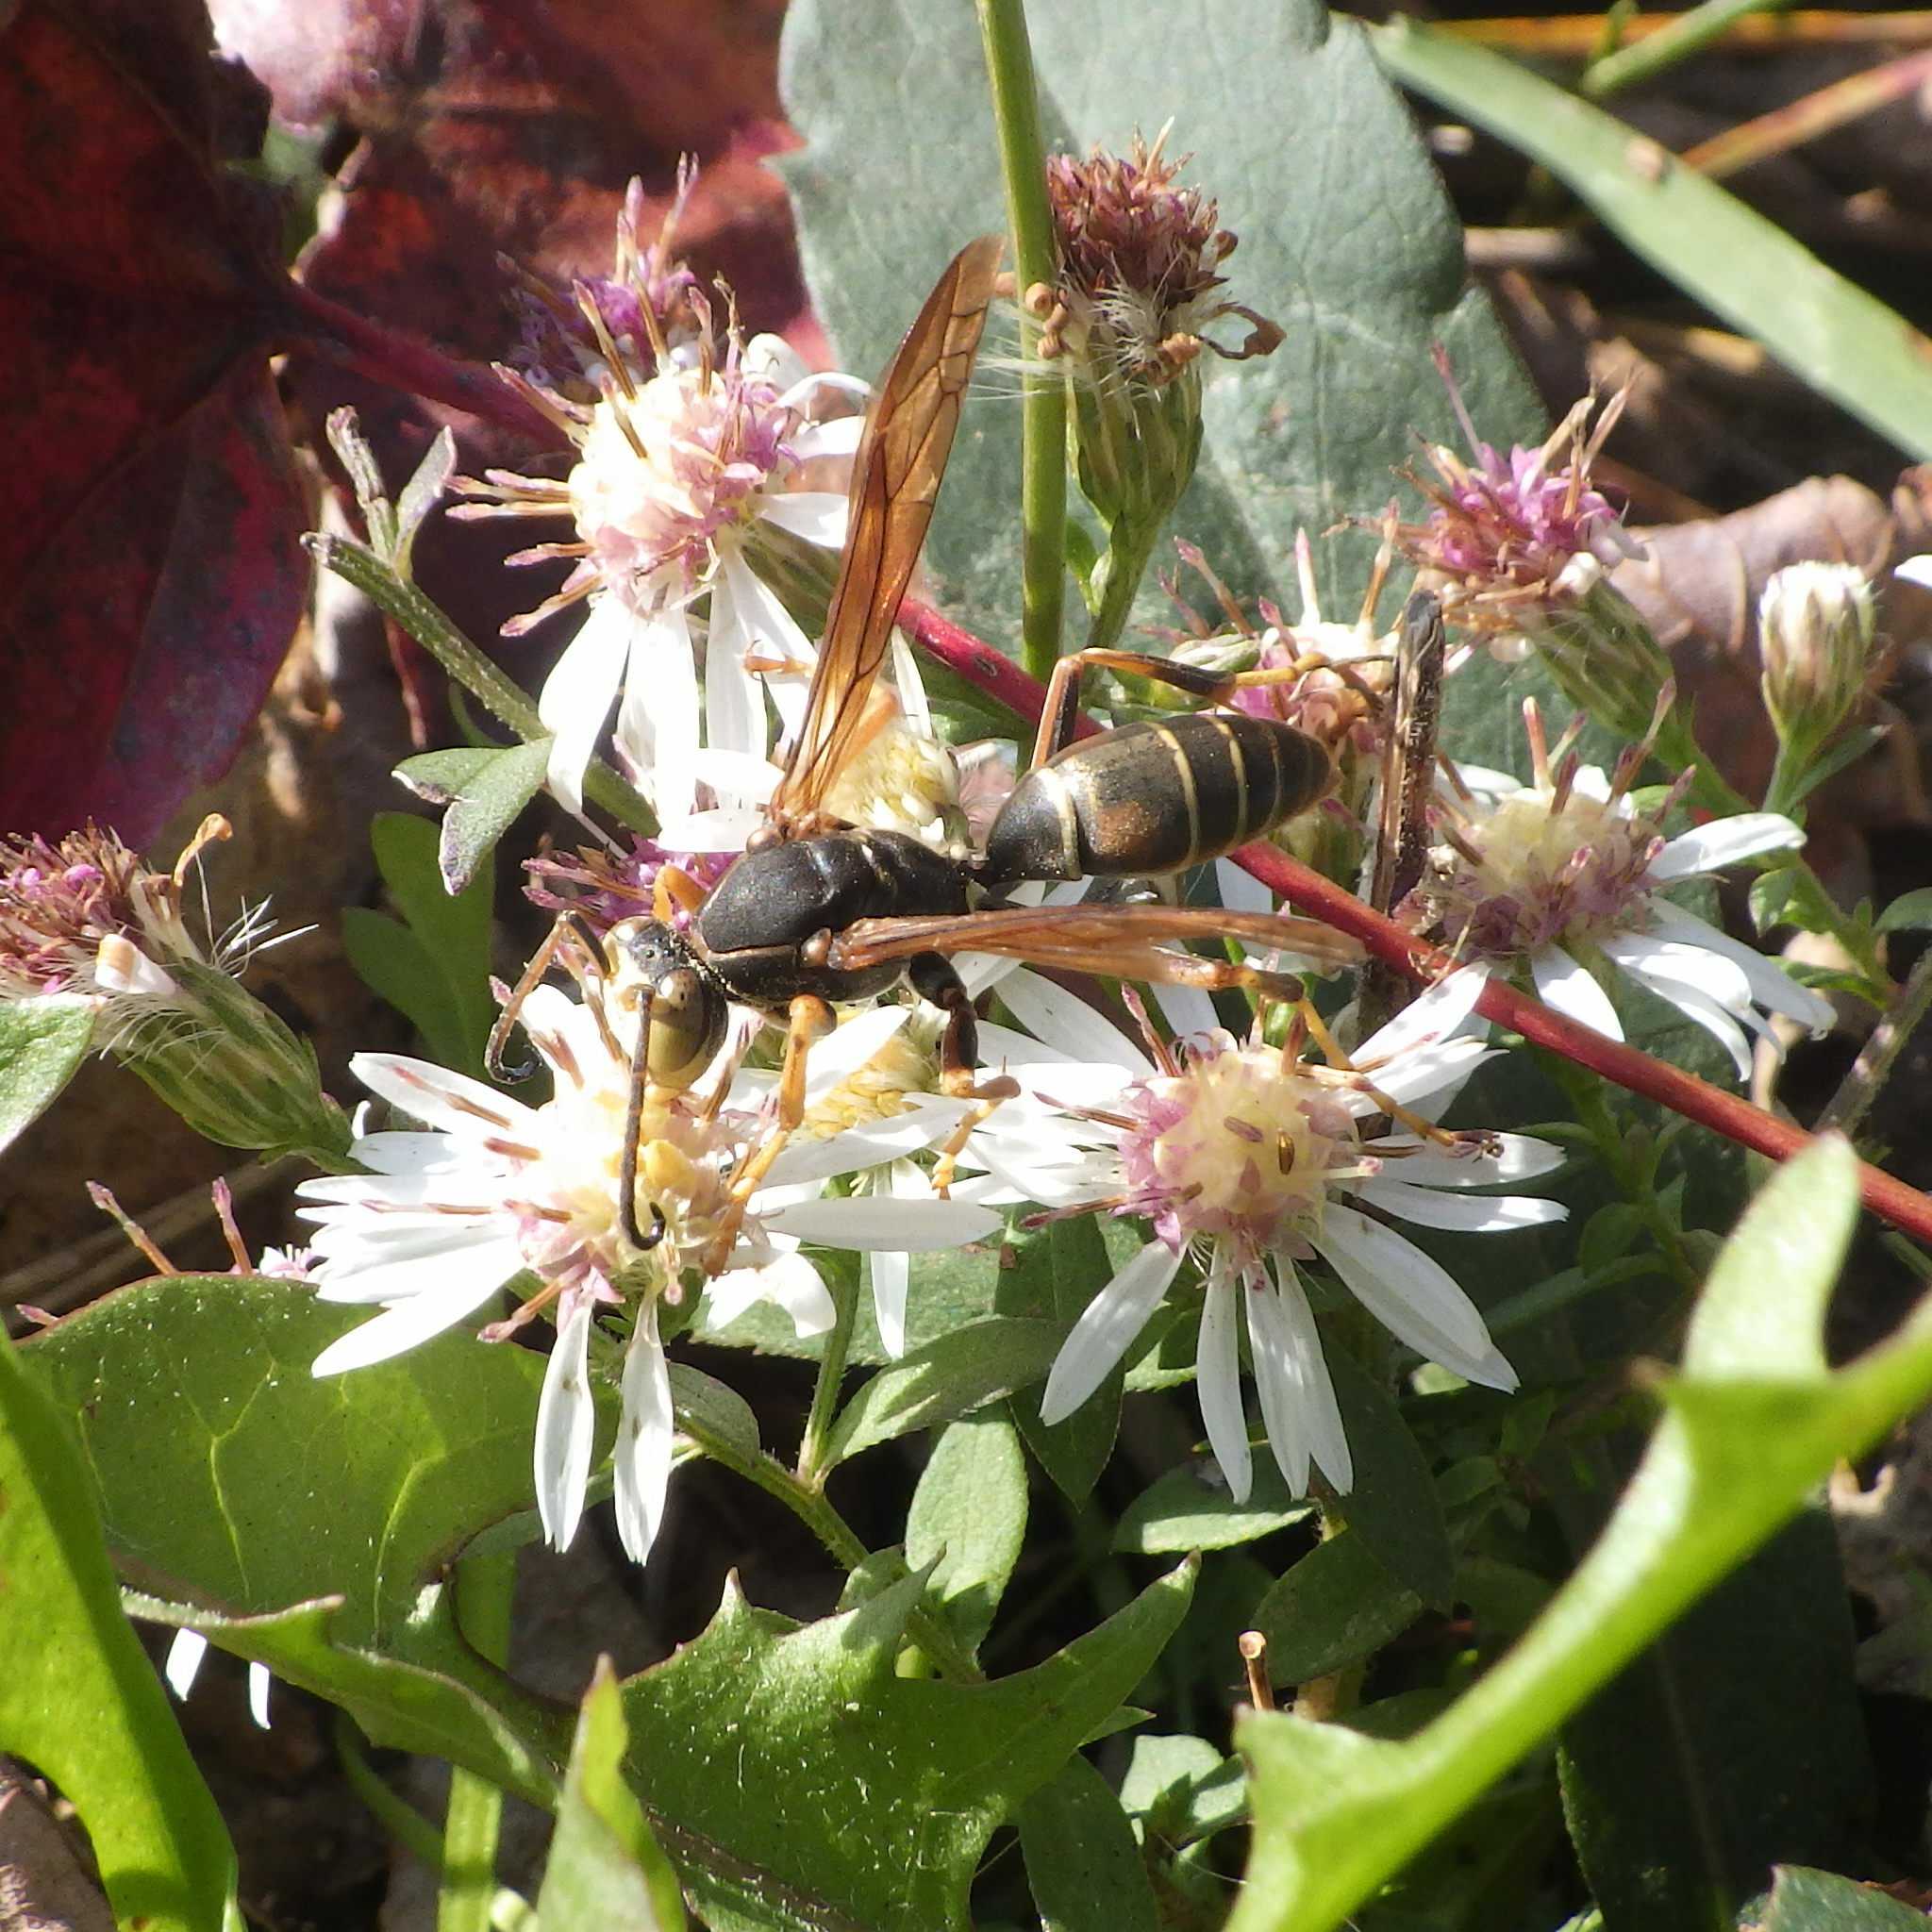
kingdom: Animalia
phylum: Arthropoda
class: Insecta
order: Hymenoptera
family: Eumenidae
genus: Polistes
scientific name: Polistes fuscatus
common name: Dark paper wasp
